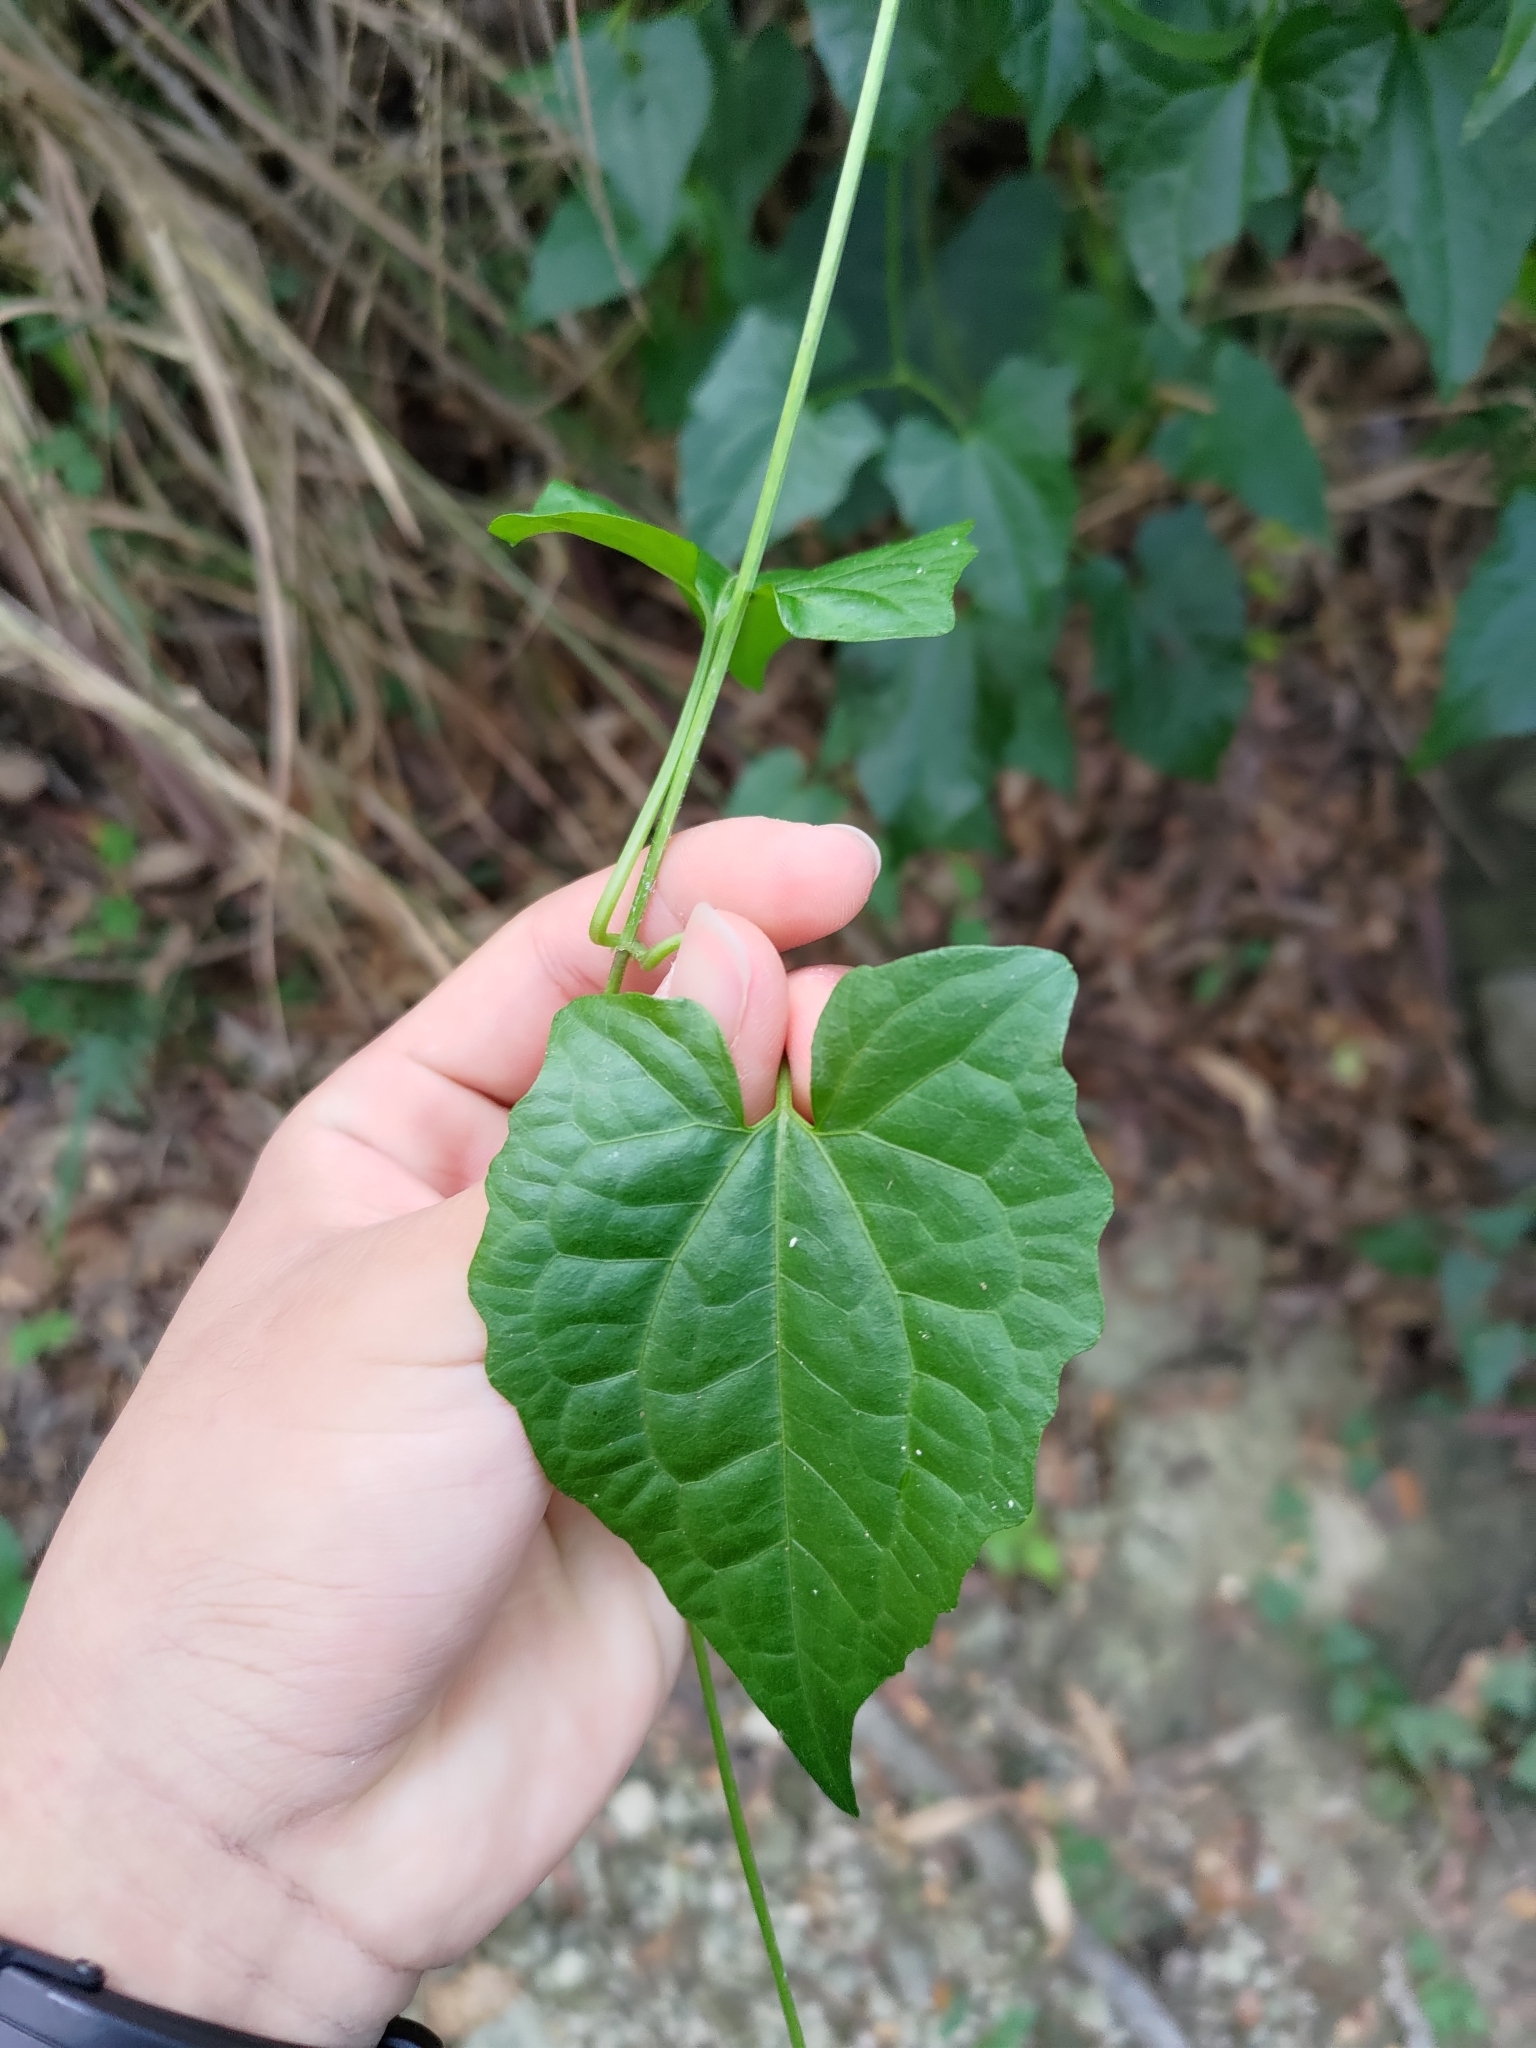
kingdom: Plantae
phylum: Tracheophyta
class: Magnoliopsida
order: Asterales
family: Asteraceae
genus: Mikania
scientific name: Mikania micrantha
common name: Mile-a-minute
